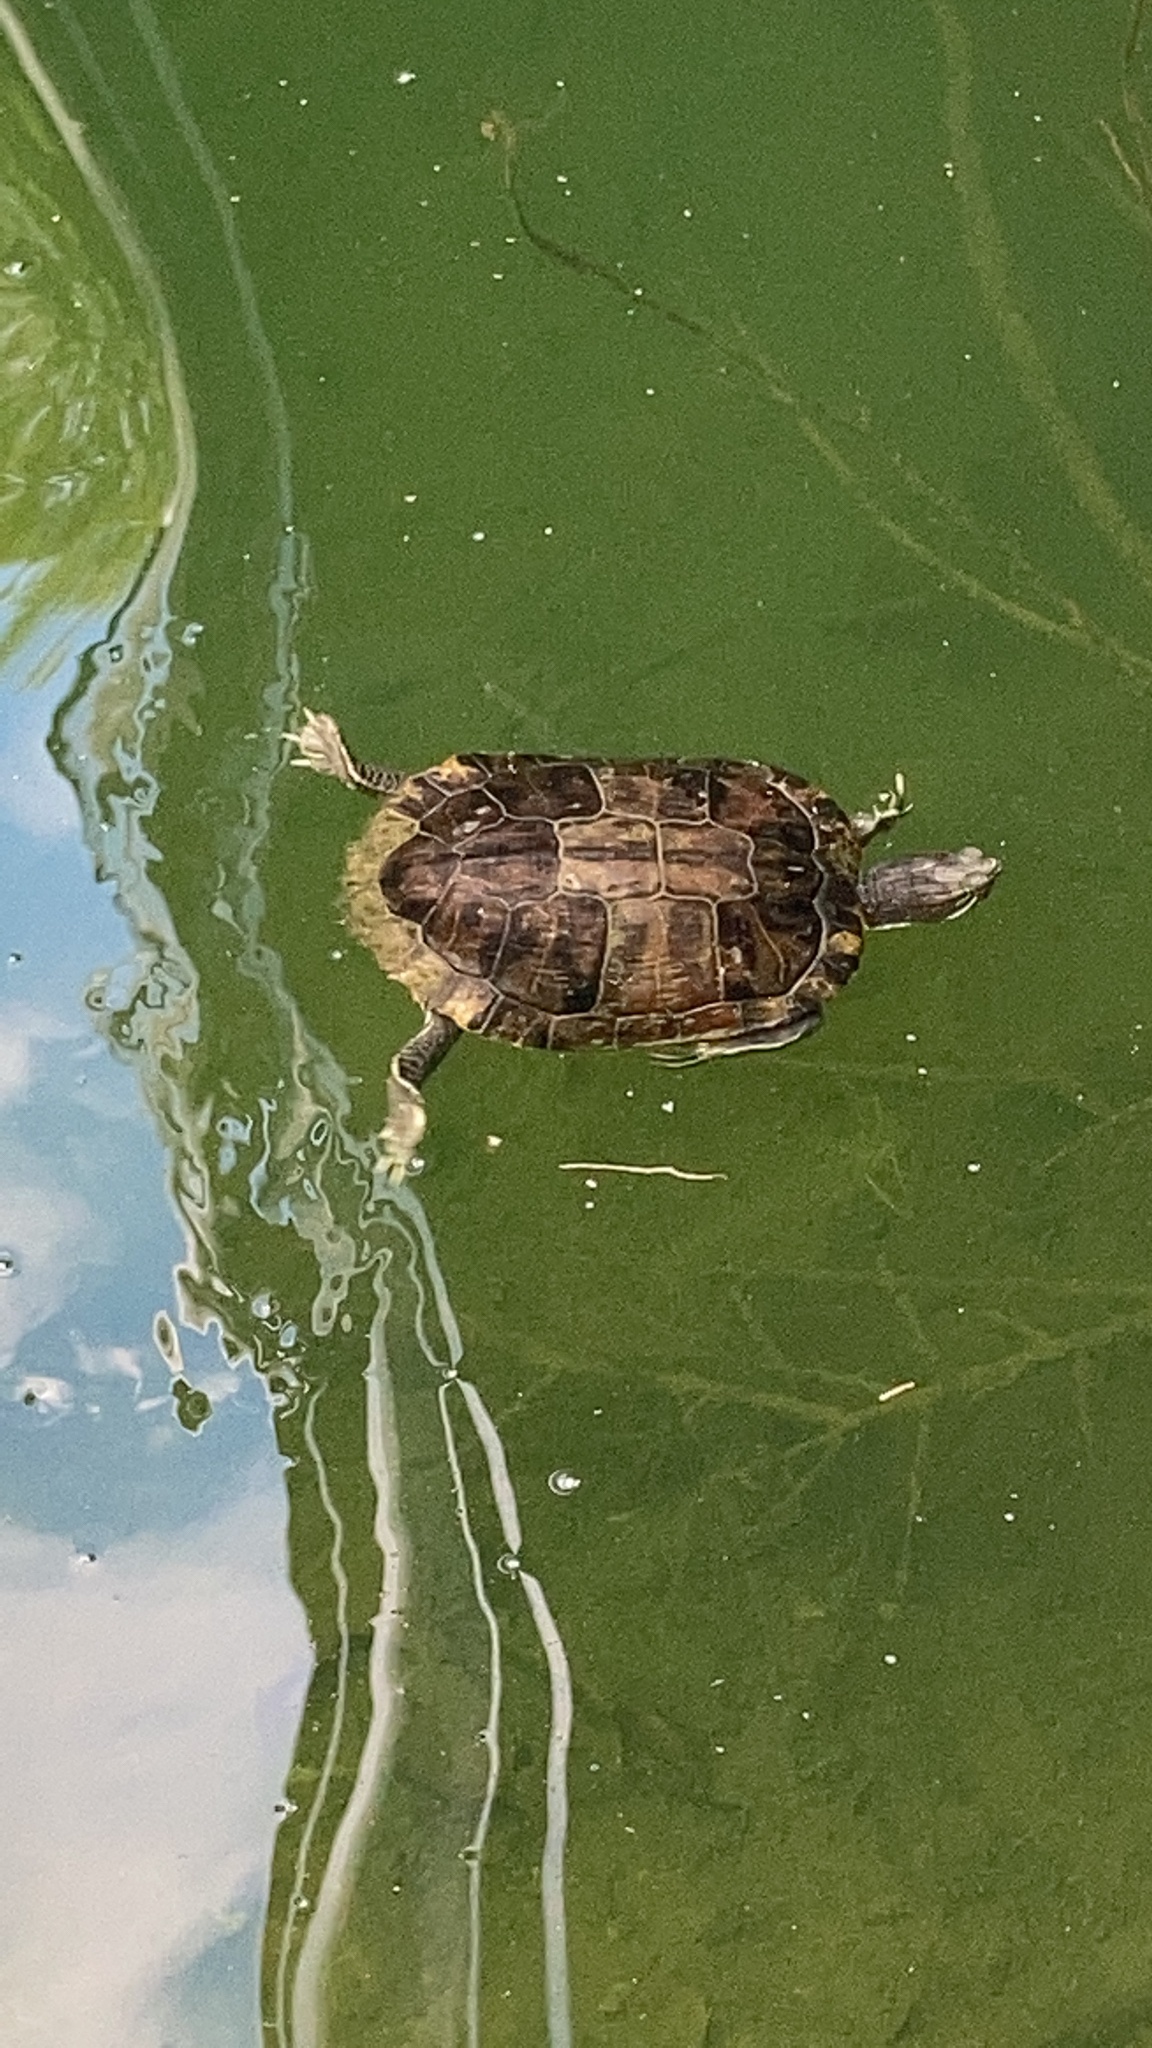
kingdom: Animalia
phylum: Chordata
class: Testudines
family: Emydidae
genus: Trachemys
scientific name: Trachemys scripta
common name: Slider
